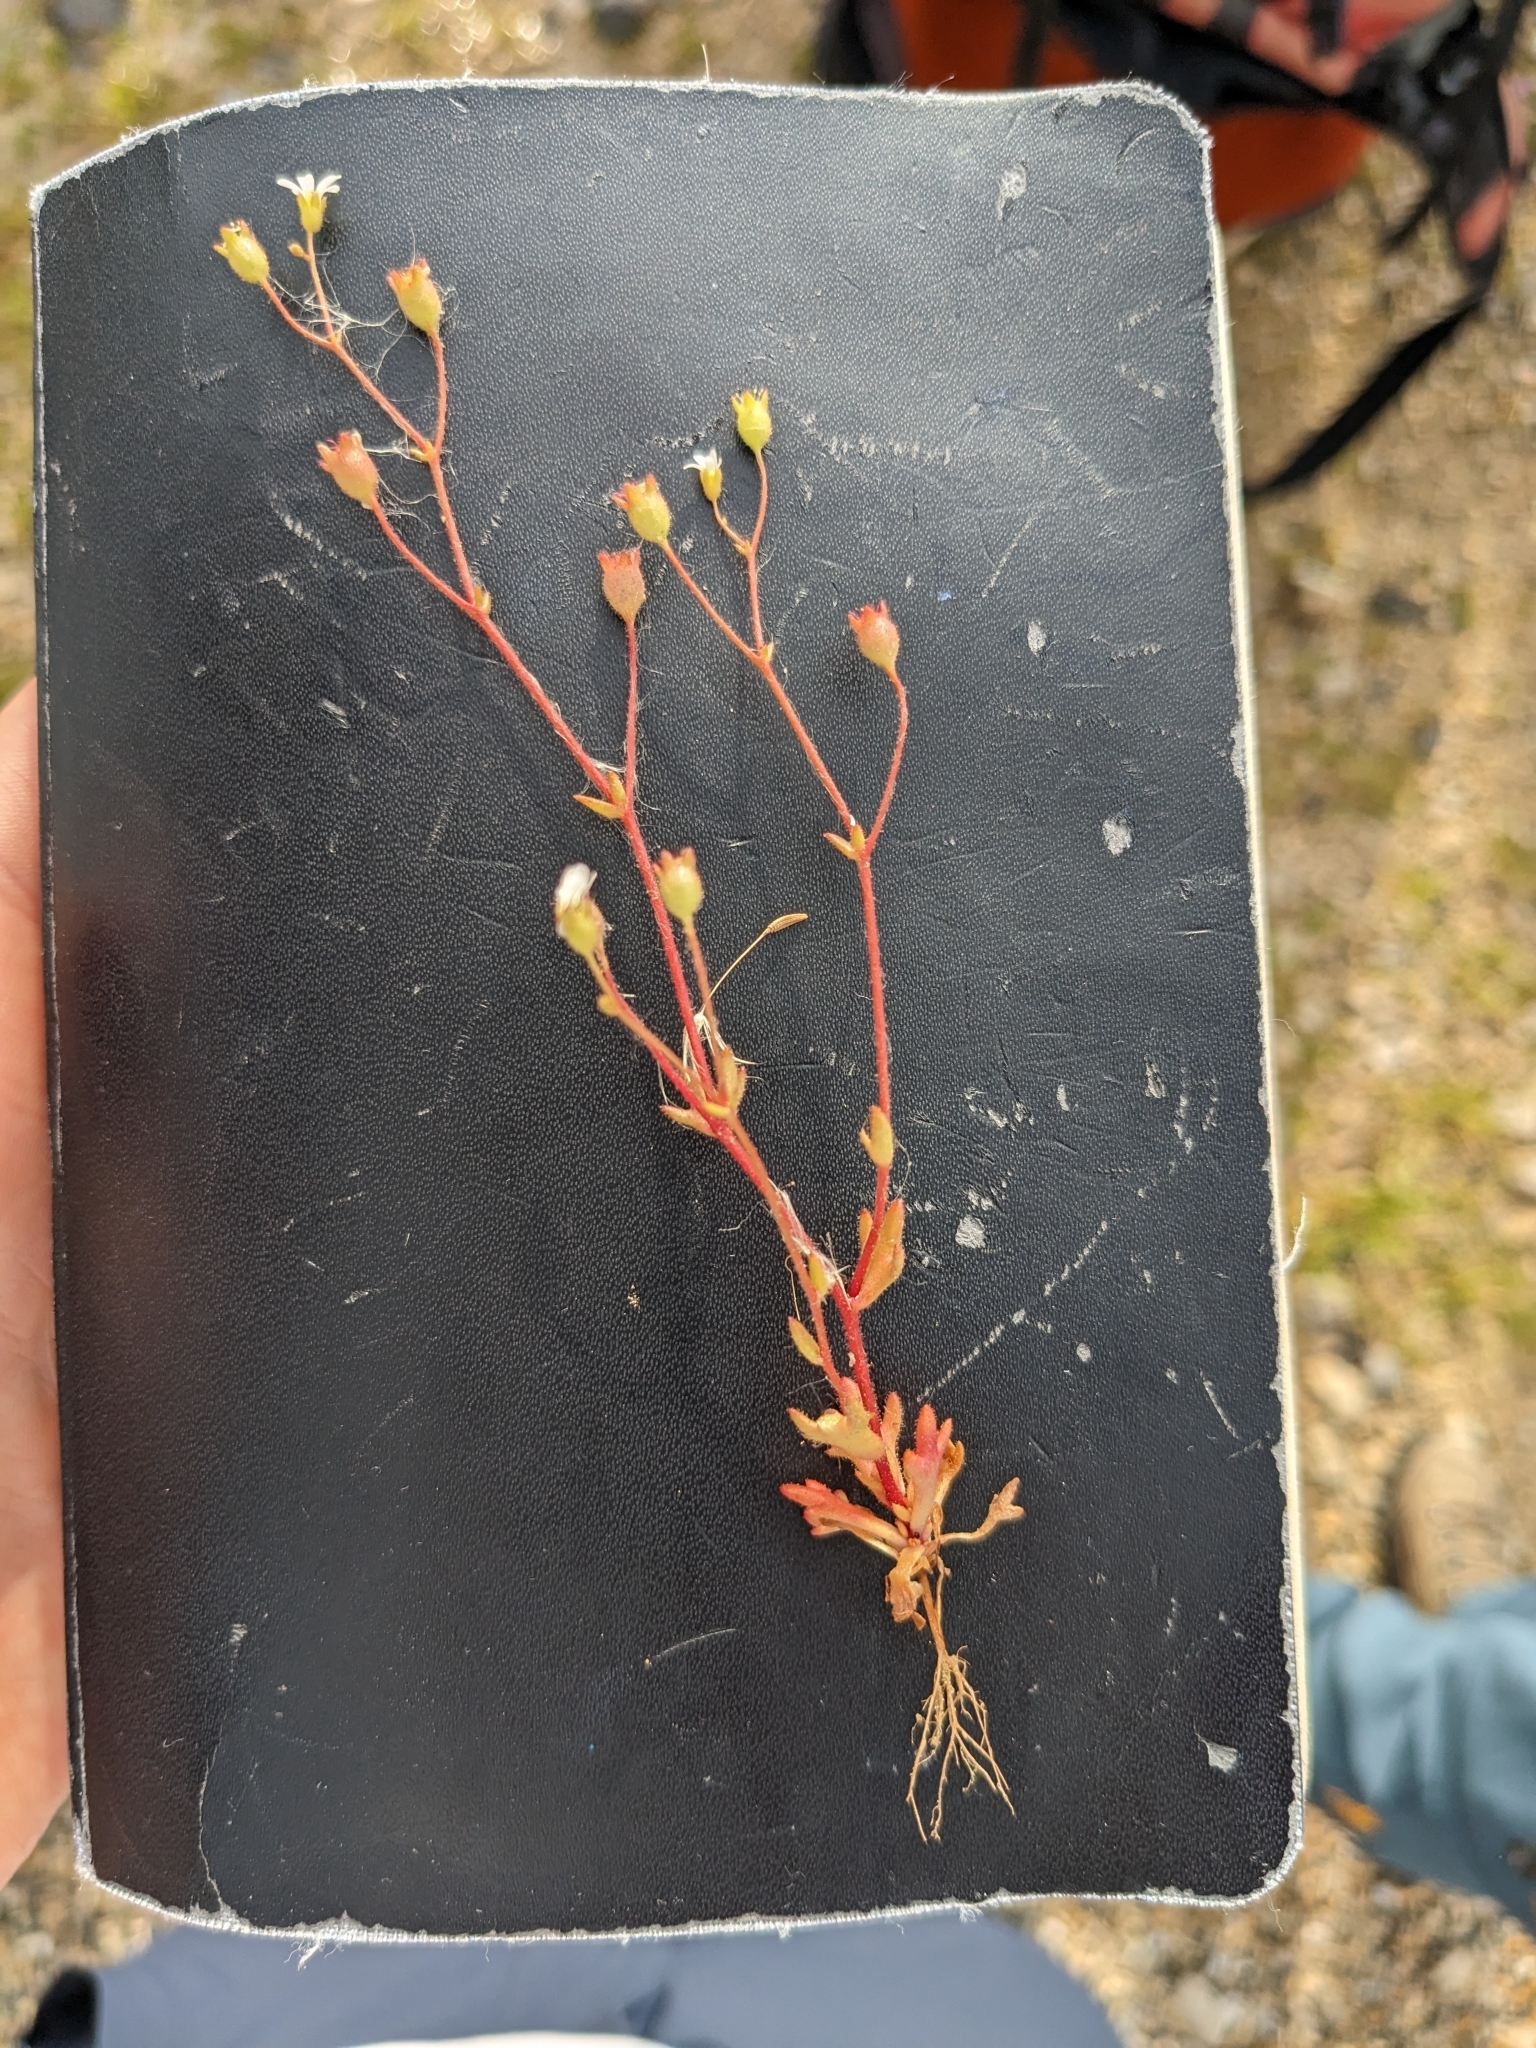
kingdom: Plantae
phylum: Tracheophyta
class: Magnoliopsida
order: Saxifragales
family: Saxifragaceae
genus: Saxifraga
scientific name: Saxifraga tridactylites
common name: Rue-leaved saxifrage
